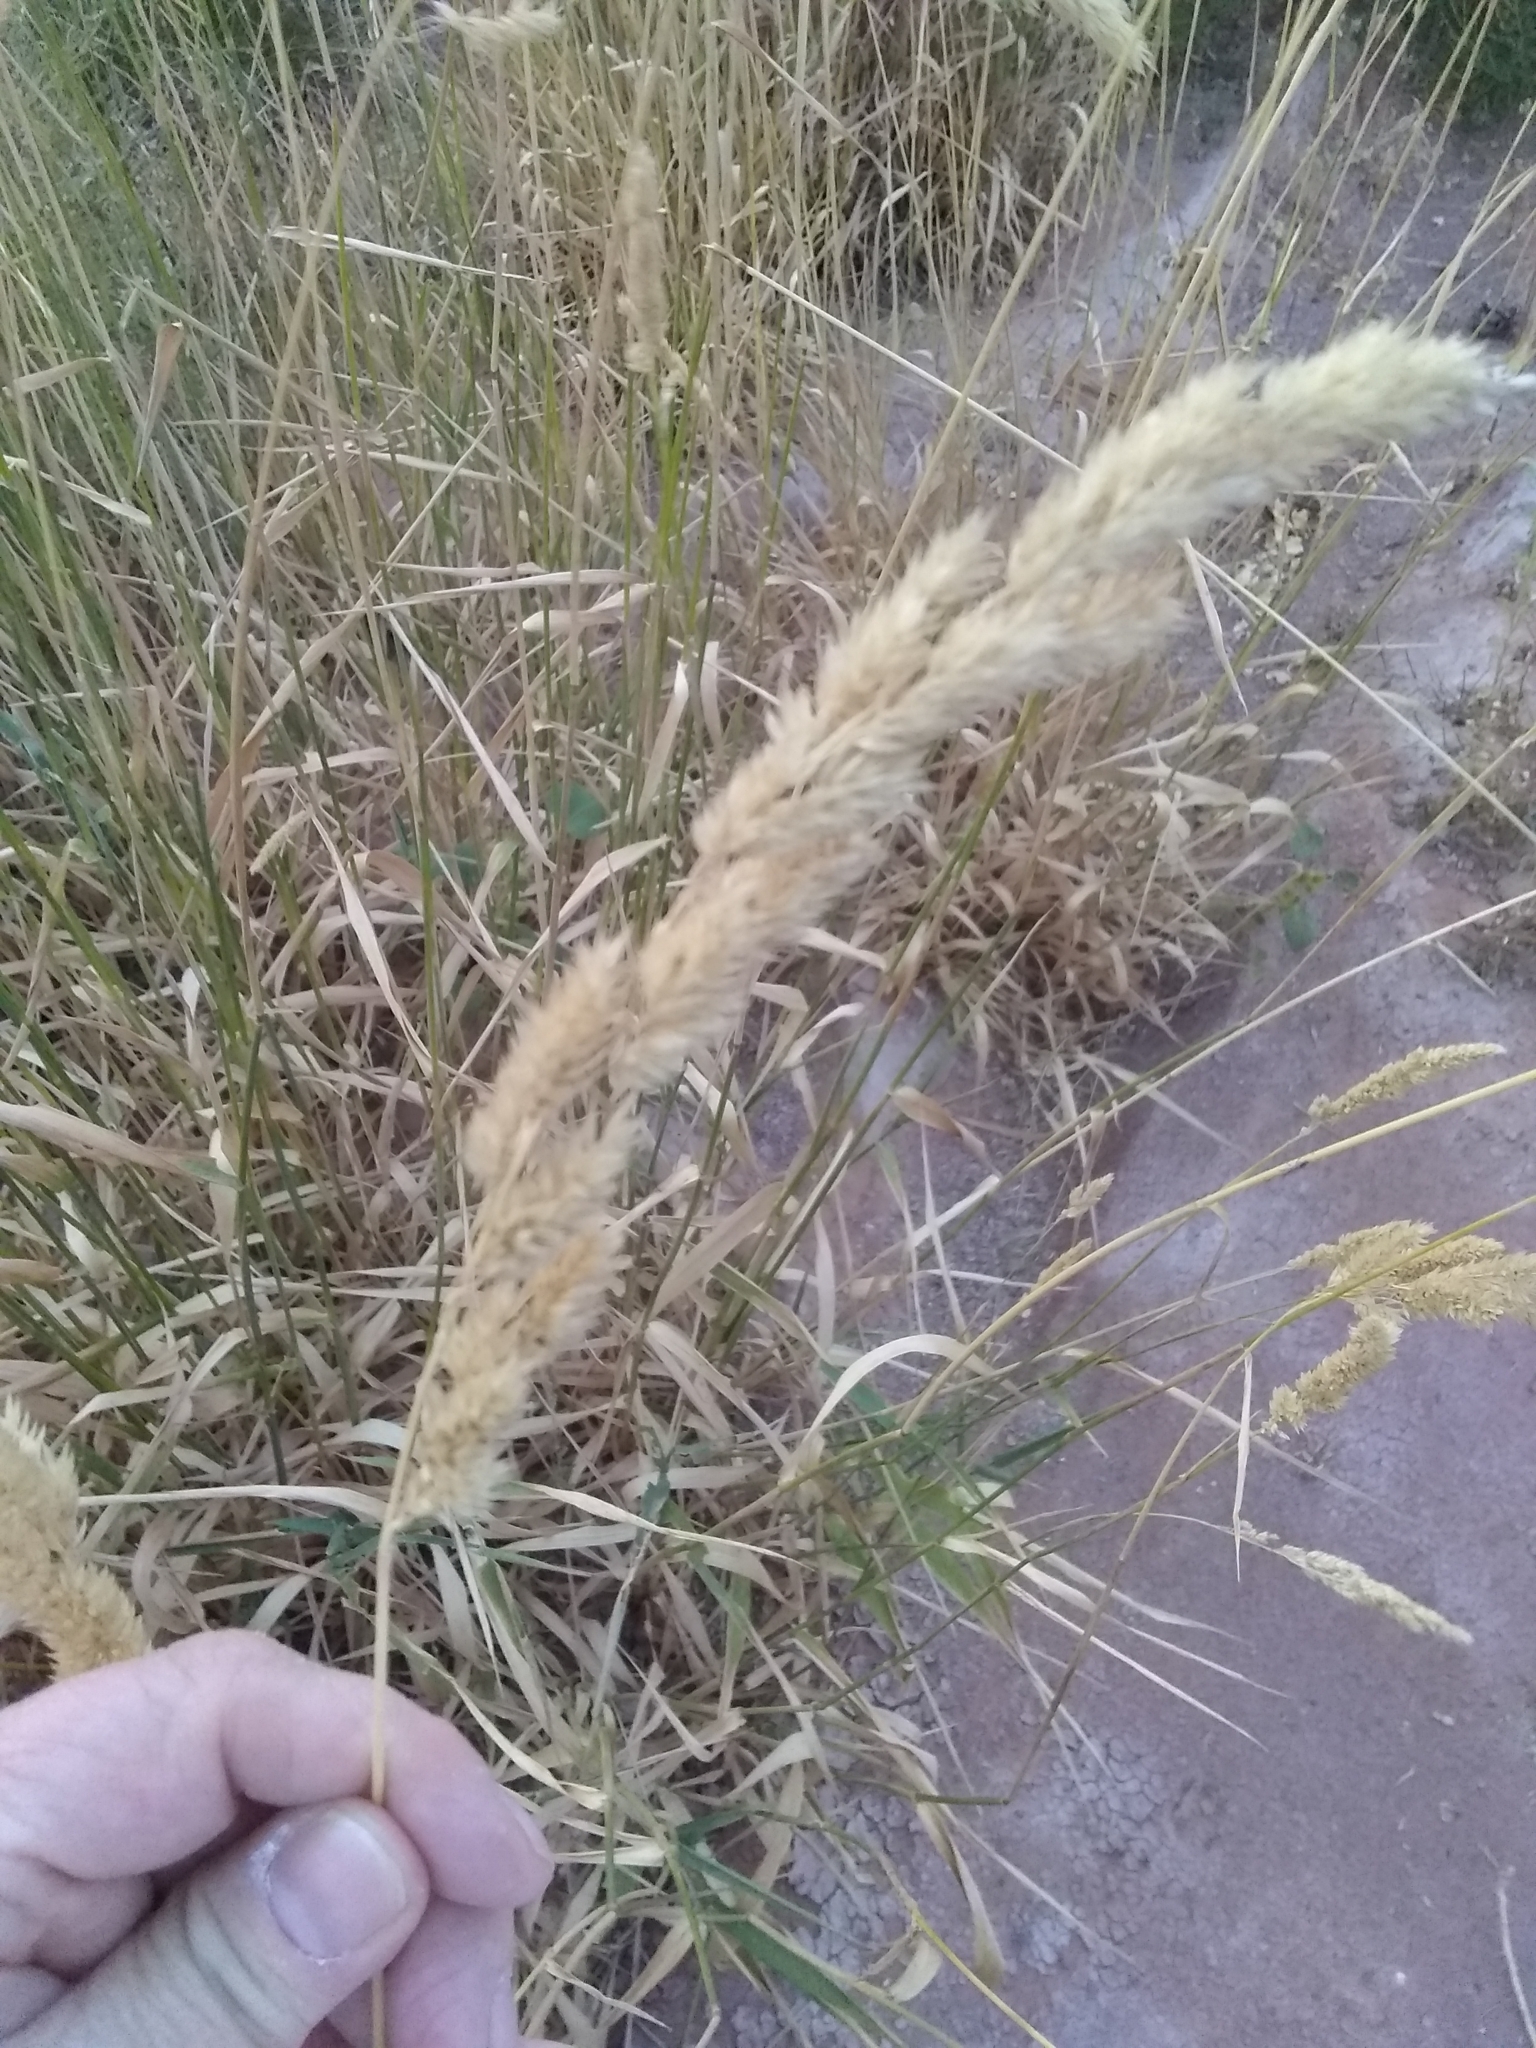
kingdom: Plantae
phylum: Tracheophyta
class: Liliopsida
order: Poales
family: Poaceae
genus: Phalaris
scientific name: Phalaris arundinacea
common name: Reed canary-grass
